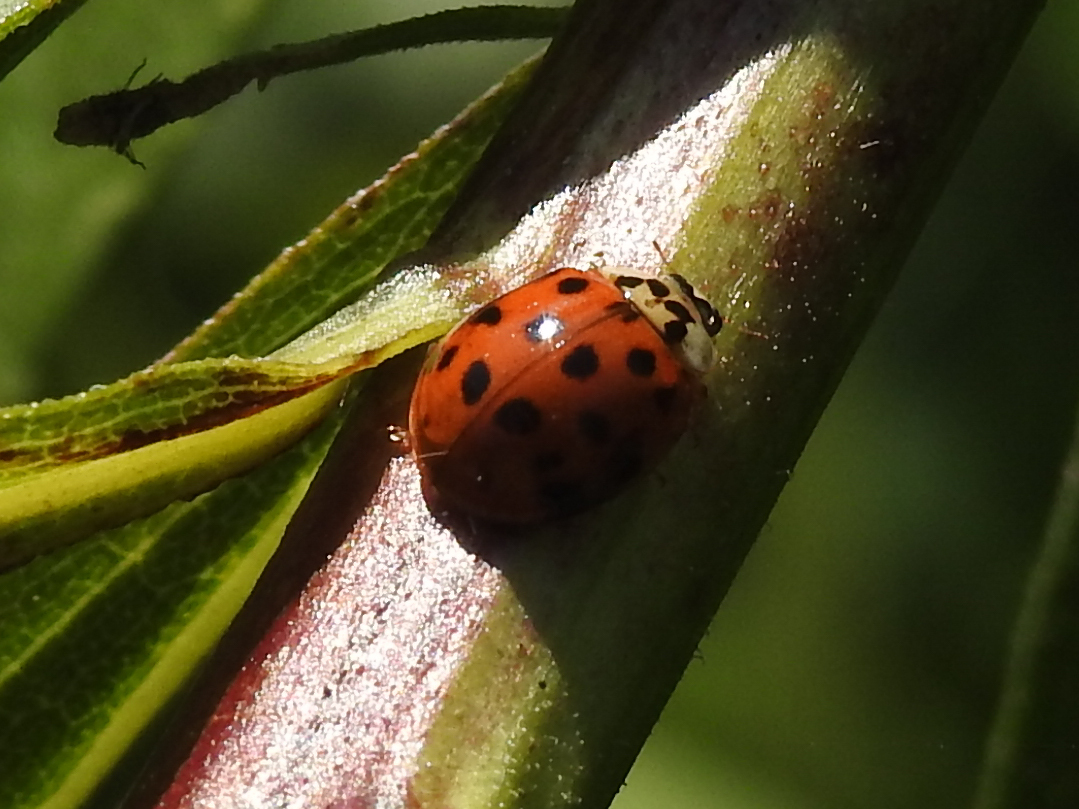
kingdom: Animalia
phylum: Arthropoda
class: Insecta
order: Coleoptera
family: Coccinellidae
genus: Harmonia
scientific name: Harmonia axyridis
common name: Harlequin ladybird
